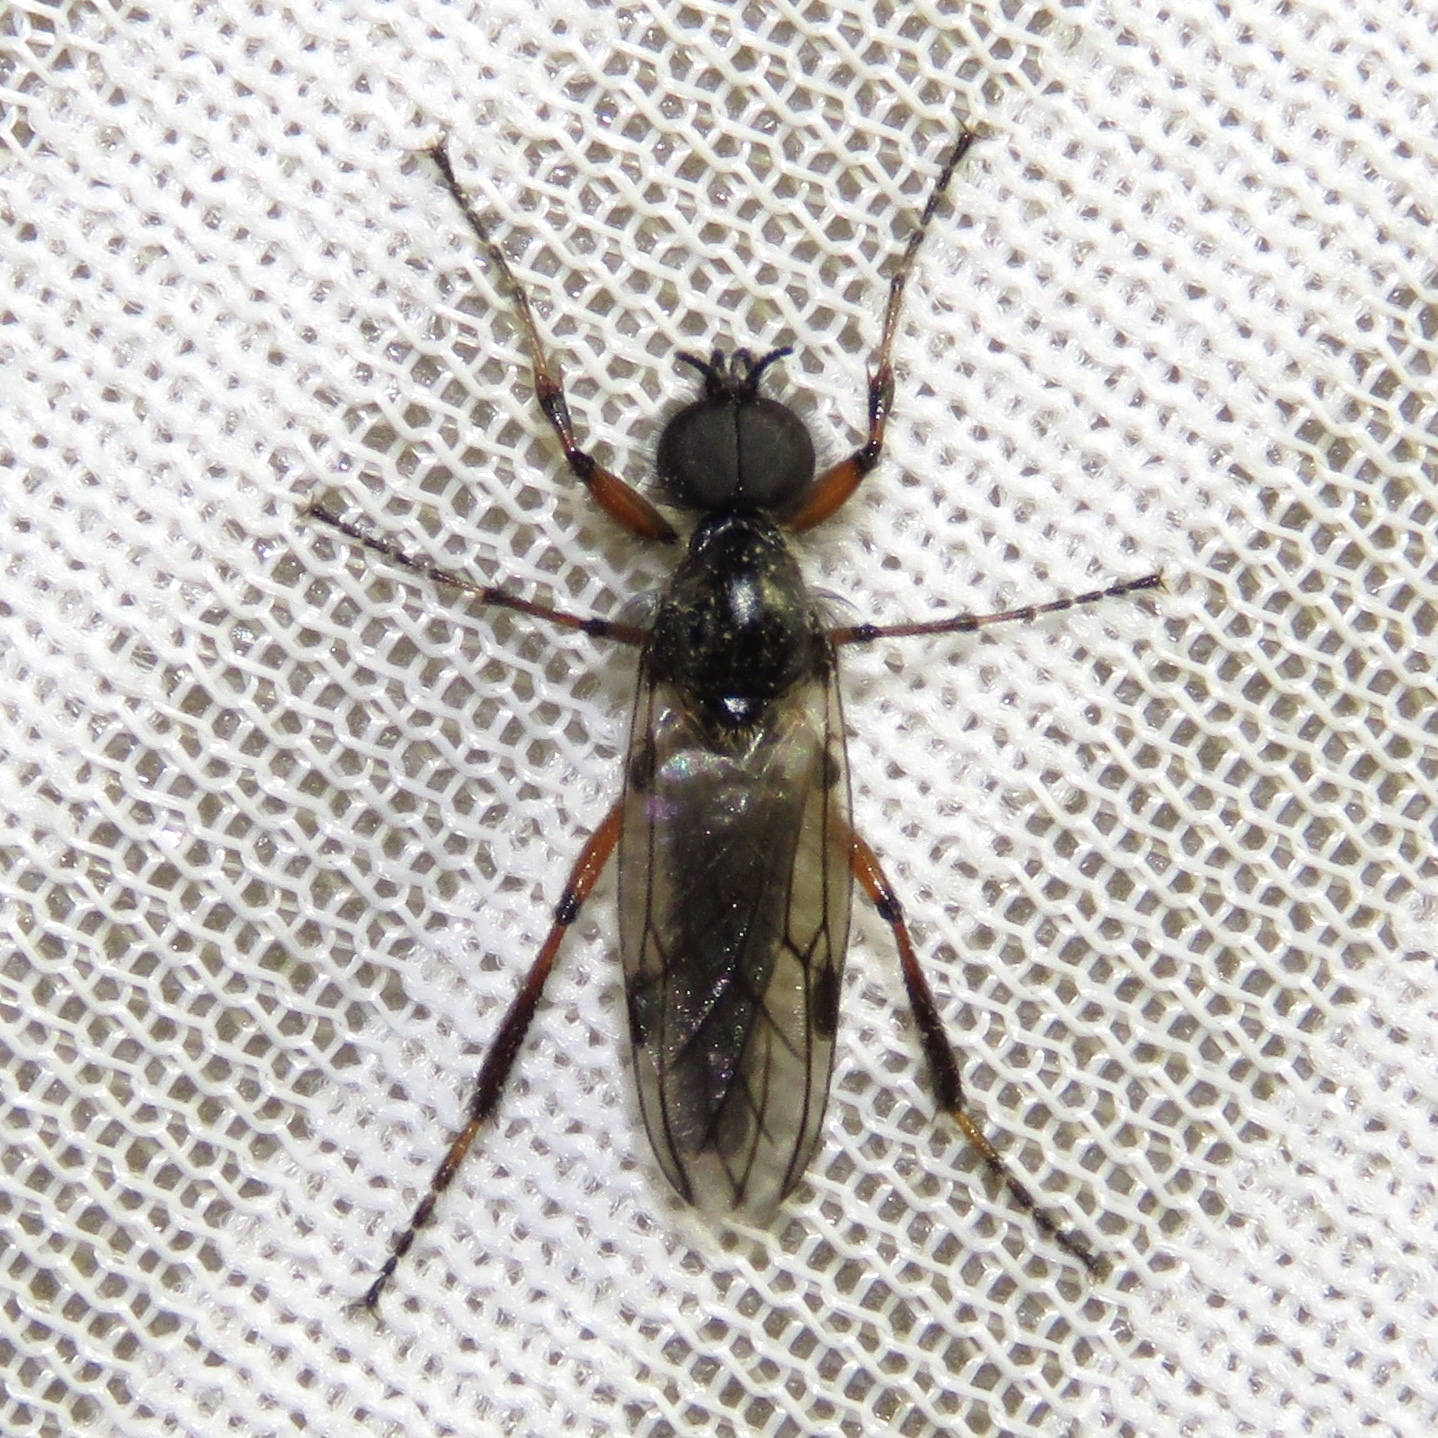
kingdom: Animalia
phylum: Arthropoda
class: Insecta
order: Diptera
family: Bibionidae
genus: Bibio
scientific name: Bibio xanthopus
